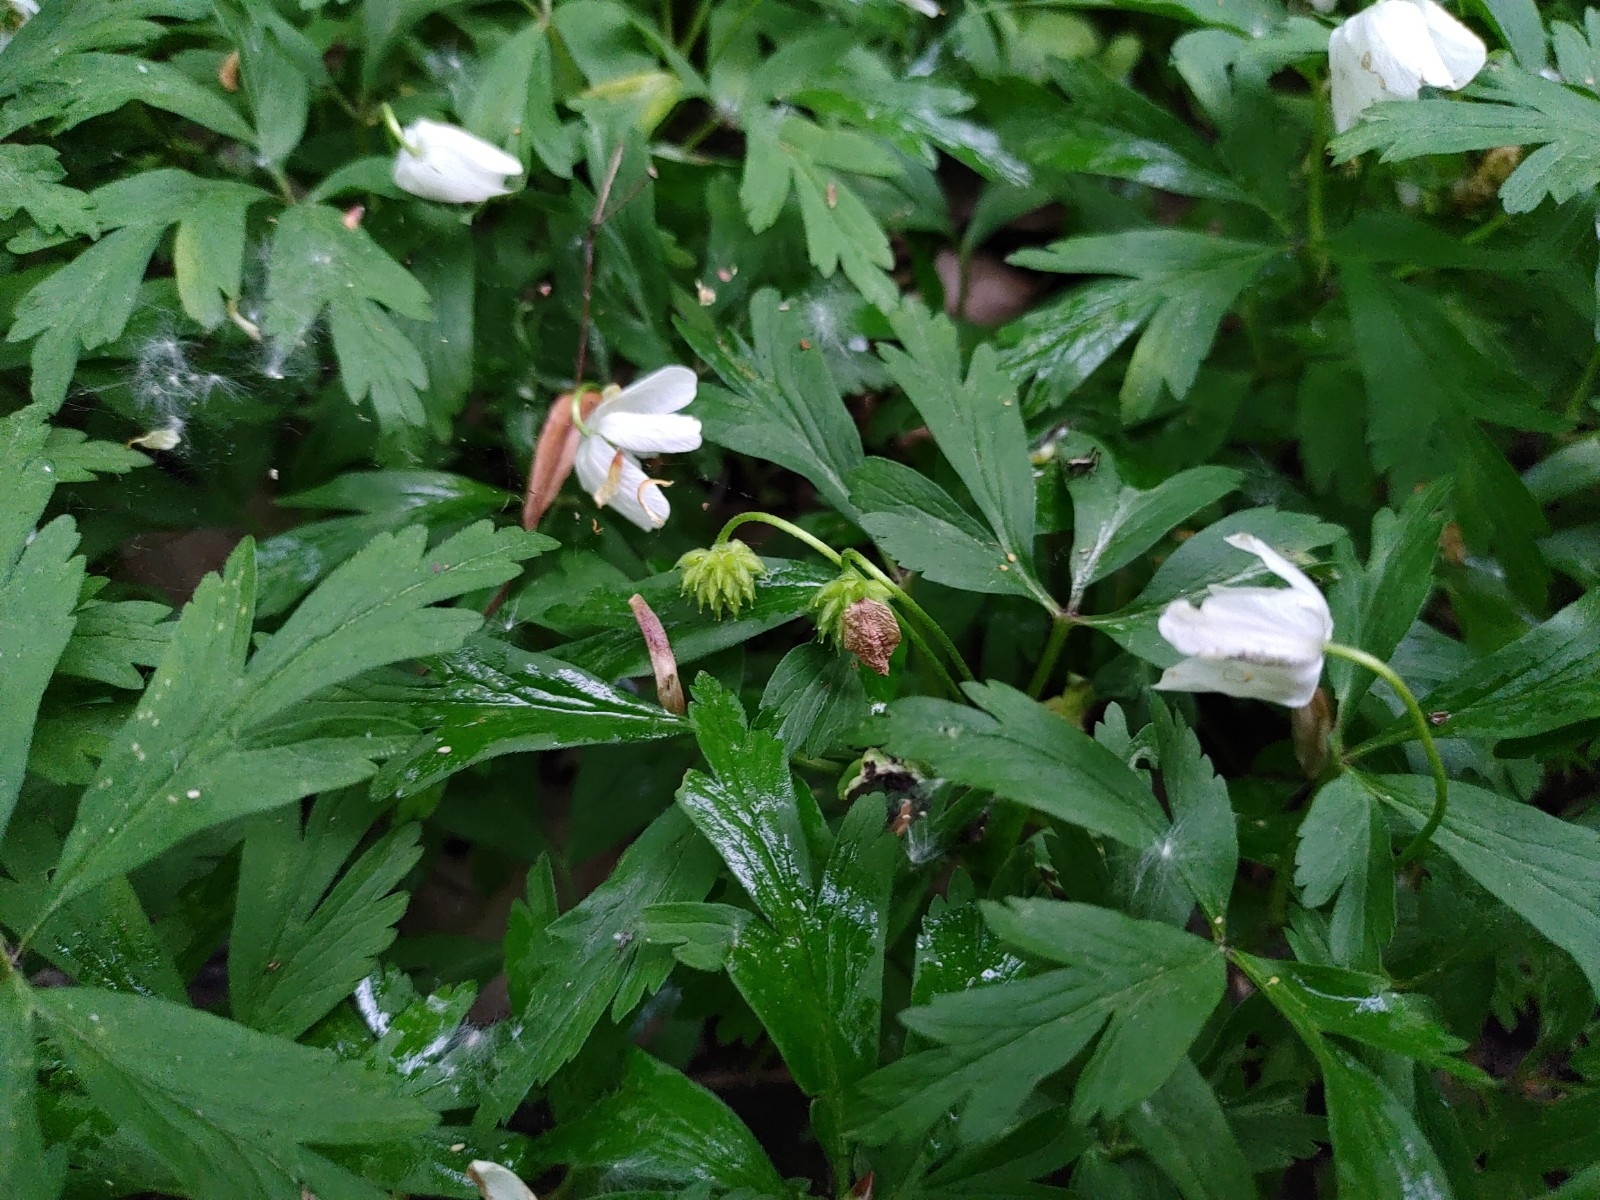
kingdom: Plantae
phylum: Tracheophyta
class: Magnoliopsida
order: Ranunculales
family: Ranunculaceae
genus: Anemone
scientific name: Anemone nemorosa
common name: Wood anemone
